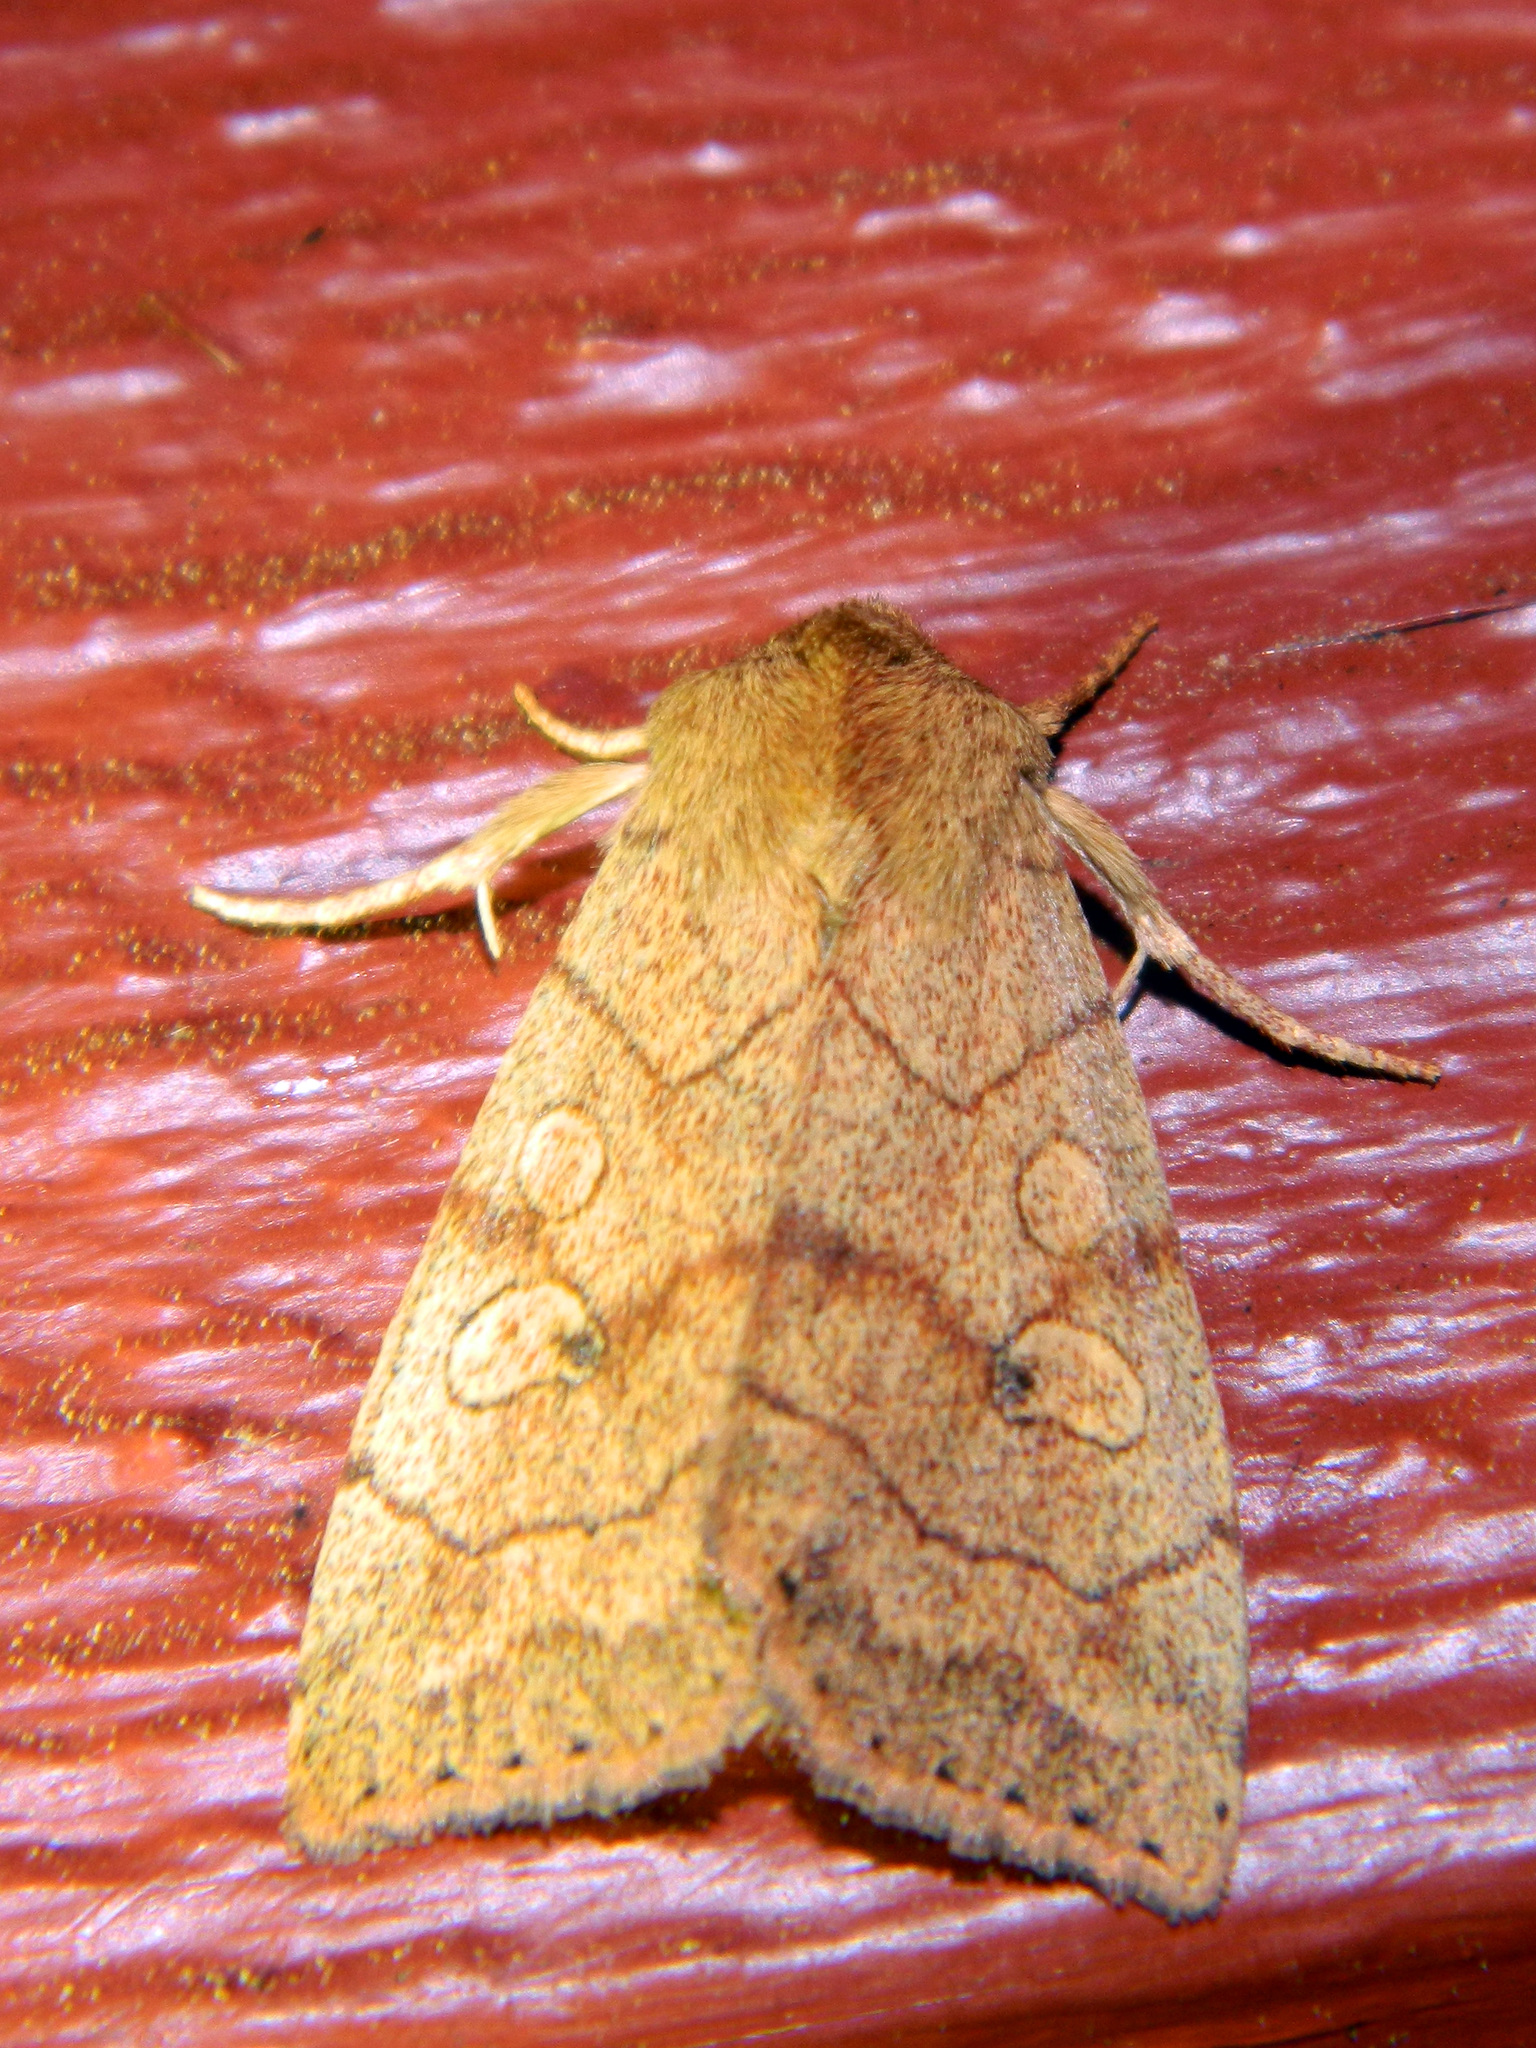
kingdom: Animalia
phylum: Arthropoda
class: Insecta
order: Lepidoptera
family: Noctuidae
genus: Enargia
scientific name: Enargia decolor
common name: Aspen twoleaf tier moth
